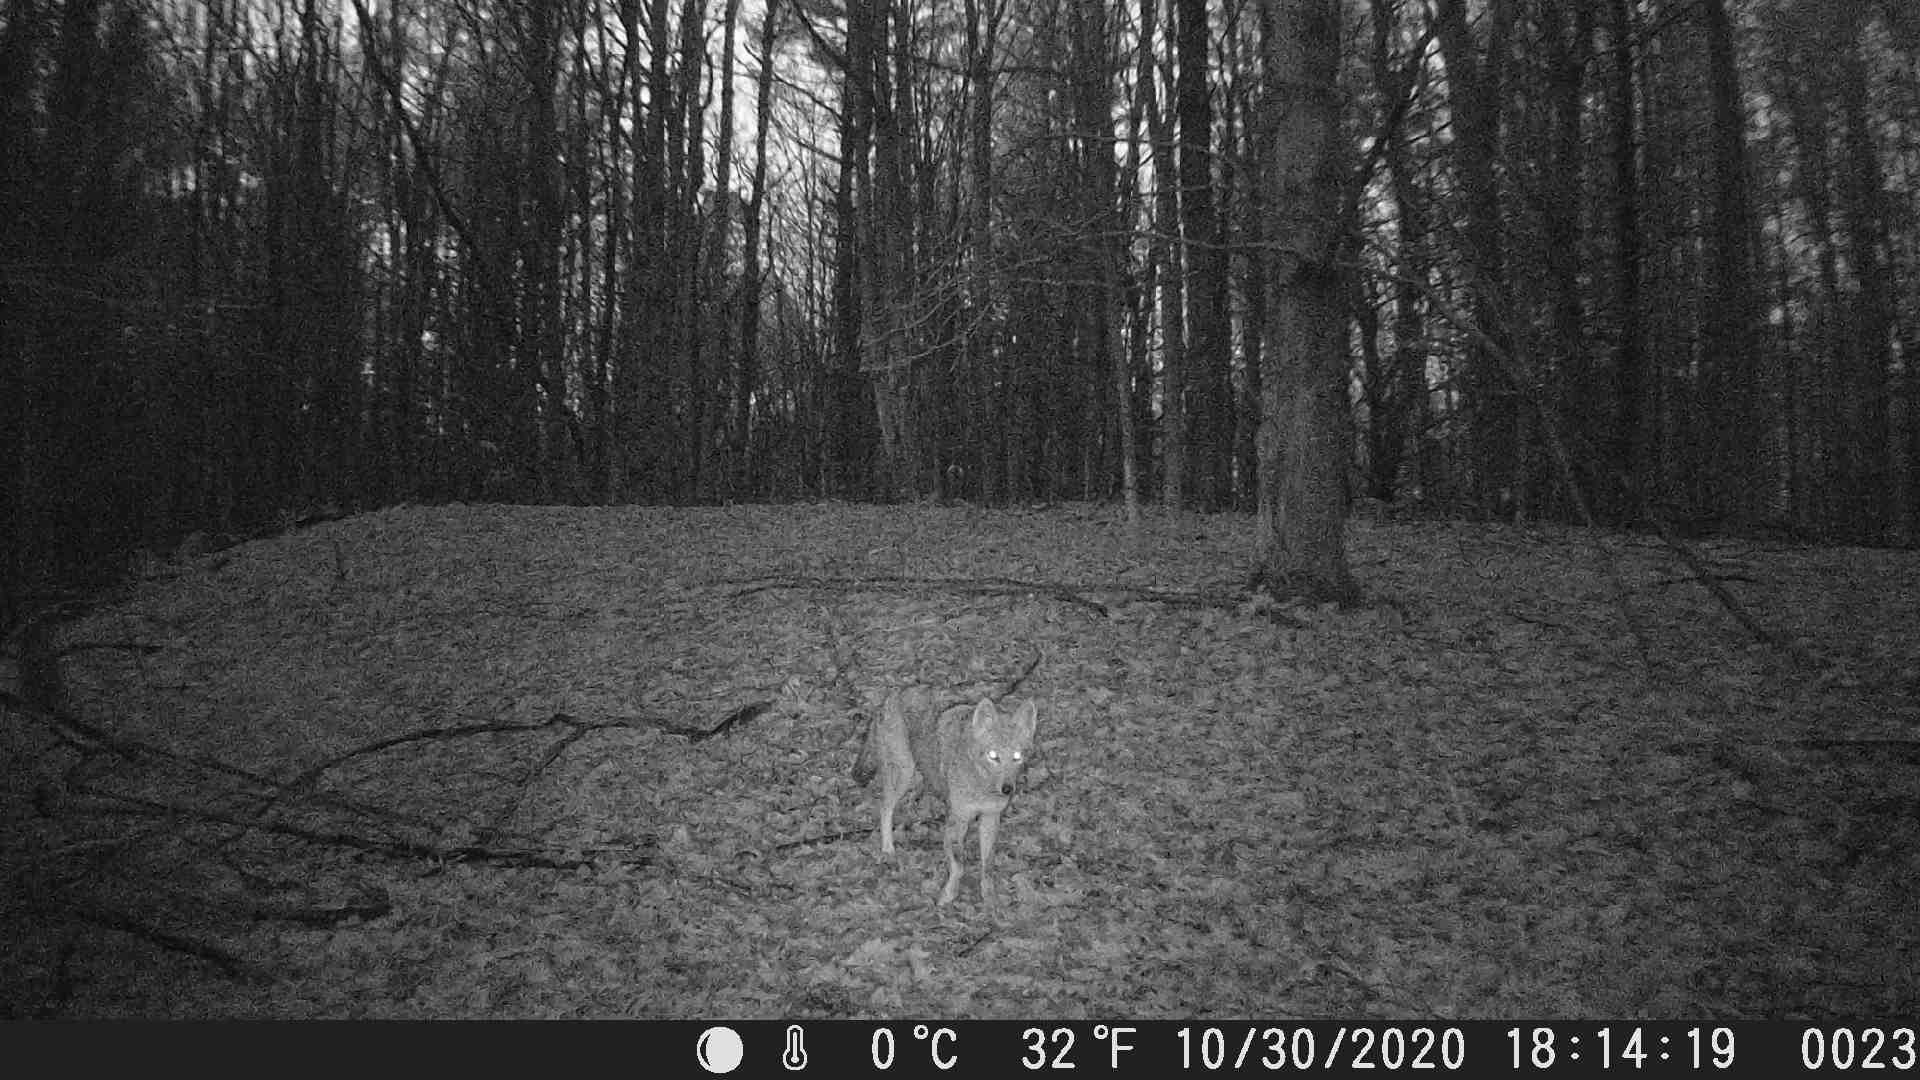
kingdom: Animalia
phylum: Chordata
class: Mammalia
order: Carnivora
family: Canidae
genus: Canis
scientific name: Canis latrans
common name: Coyote
